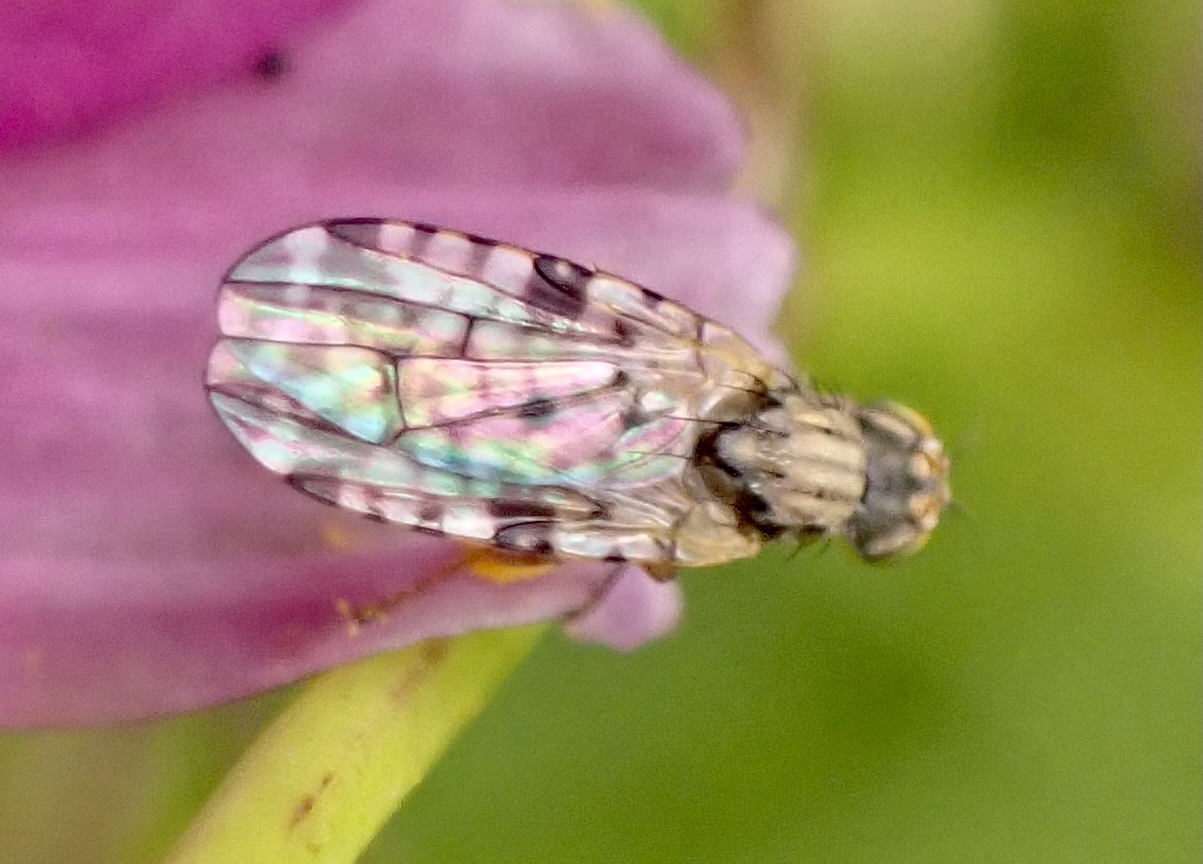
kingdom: Animalia
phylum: Arthropoda
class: Insecta
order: Diptera
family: Tephritidae
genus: Dioxyna
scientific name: Dioxyna bidentis
